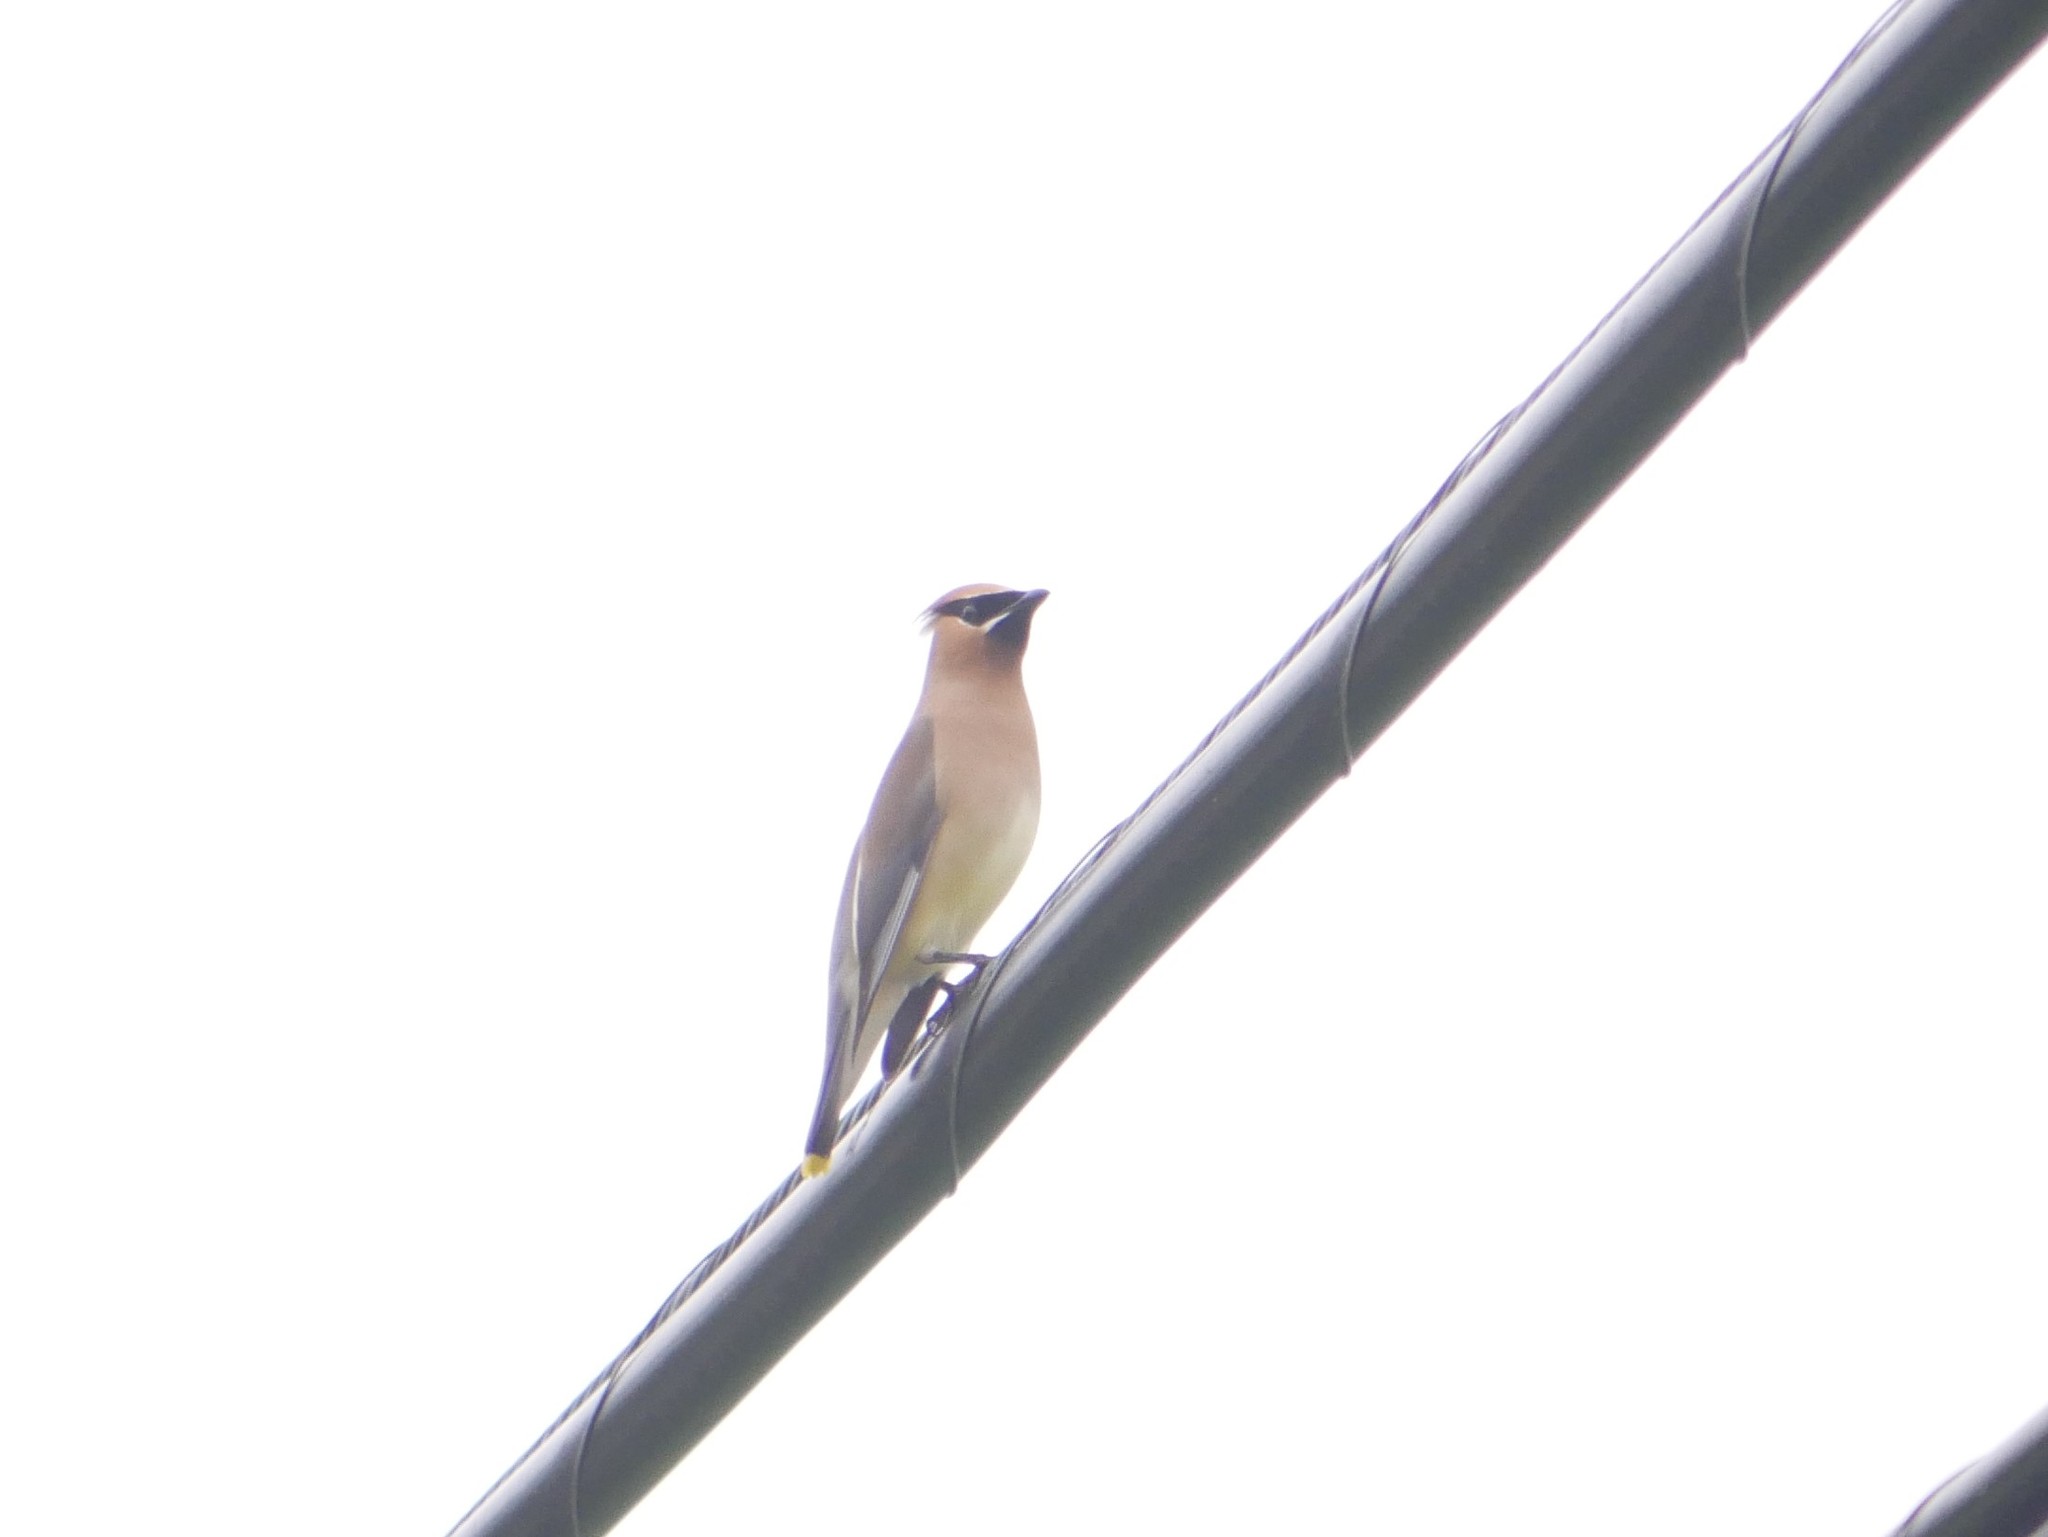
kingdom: Animalia
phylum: Chordata
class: Aves
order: Passeriformes
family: Bombycillidae
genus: Bombycilla
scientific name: Bombycilla cedrorum
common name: Cedar waxwing
